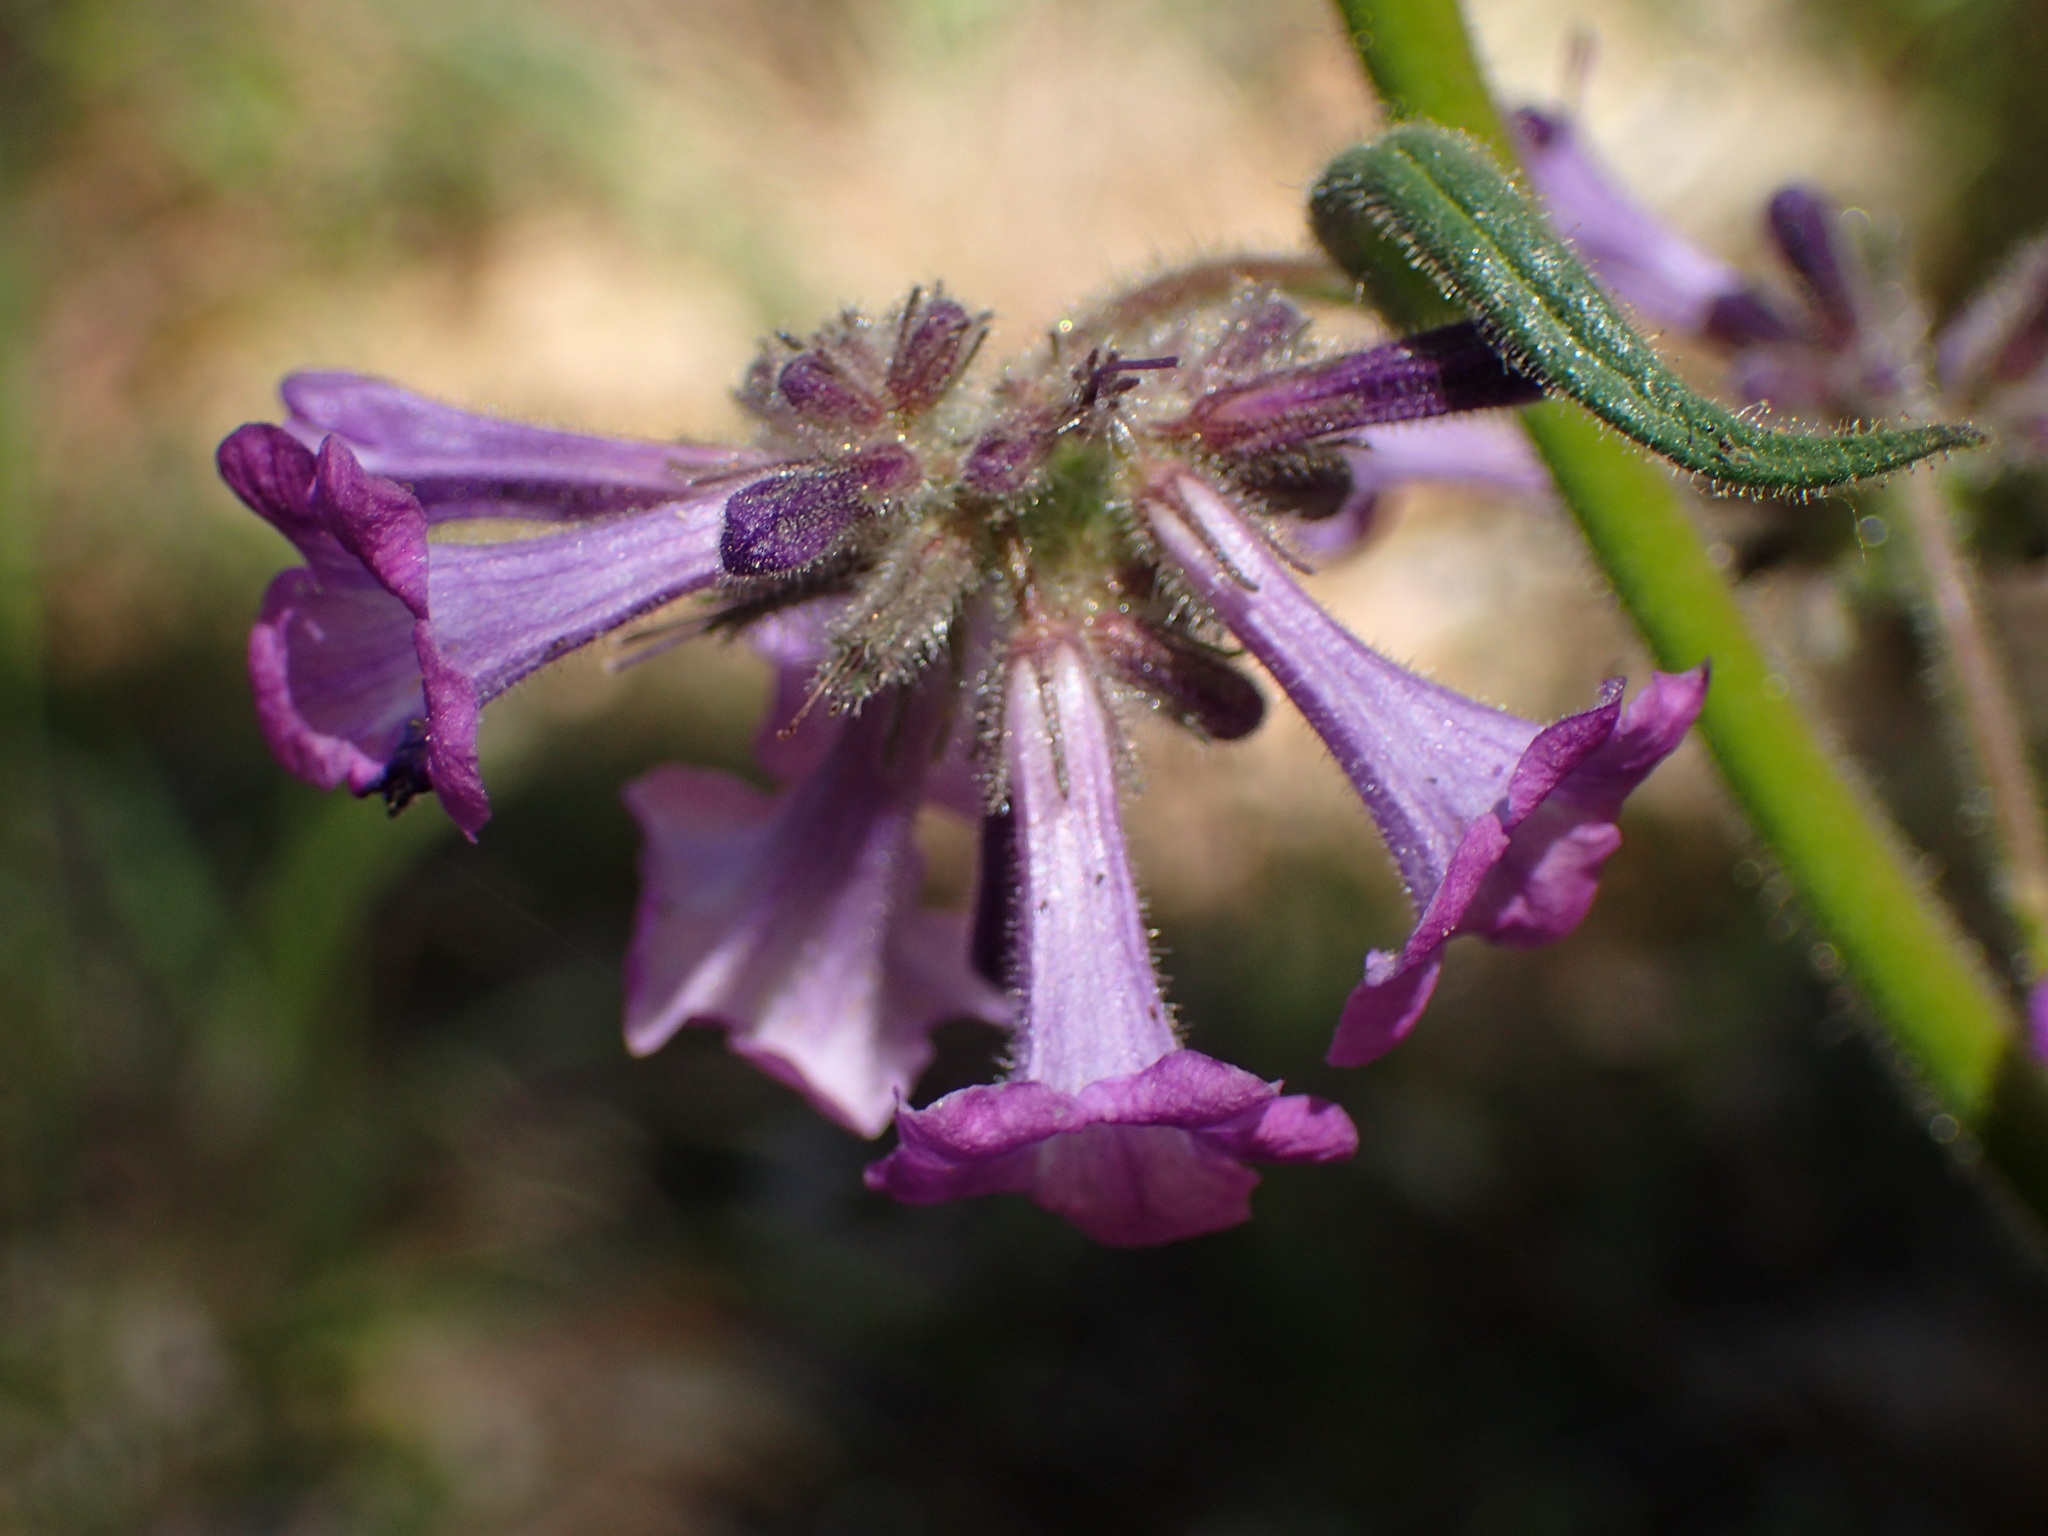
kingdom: Plantae
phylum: Tracheophyta
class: Magnoliopsida
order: Boraginales
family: Namaceae
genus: Turricula
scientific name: Turricula parryi
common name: Poodle-dog-bush
